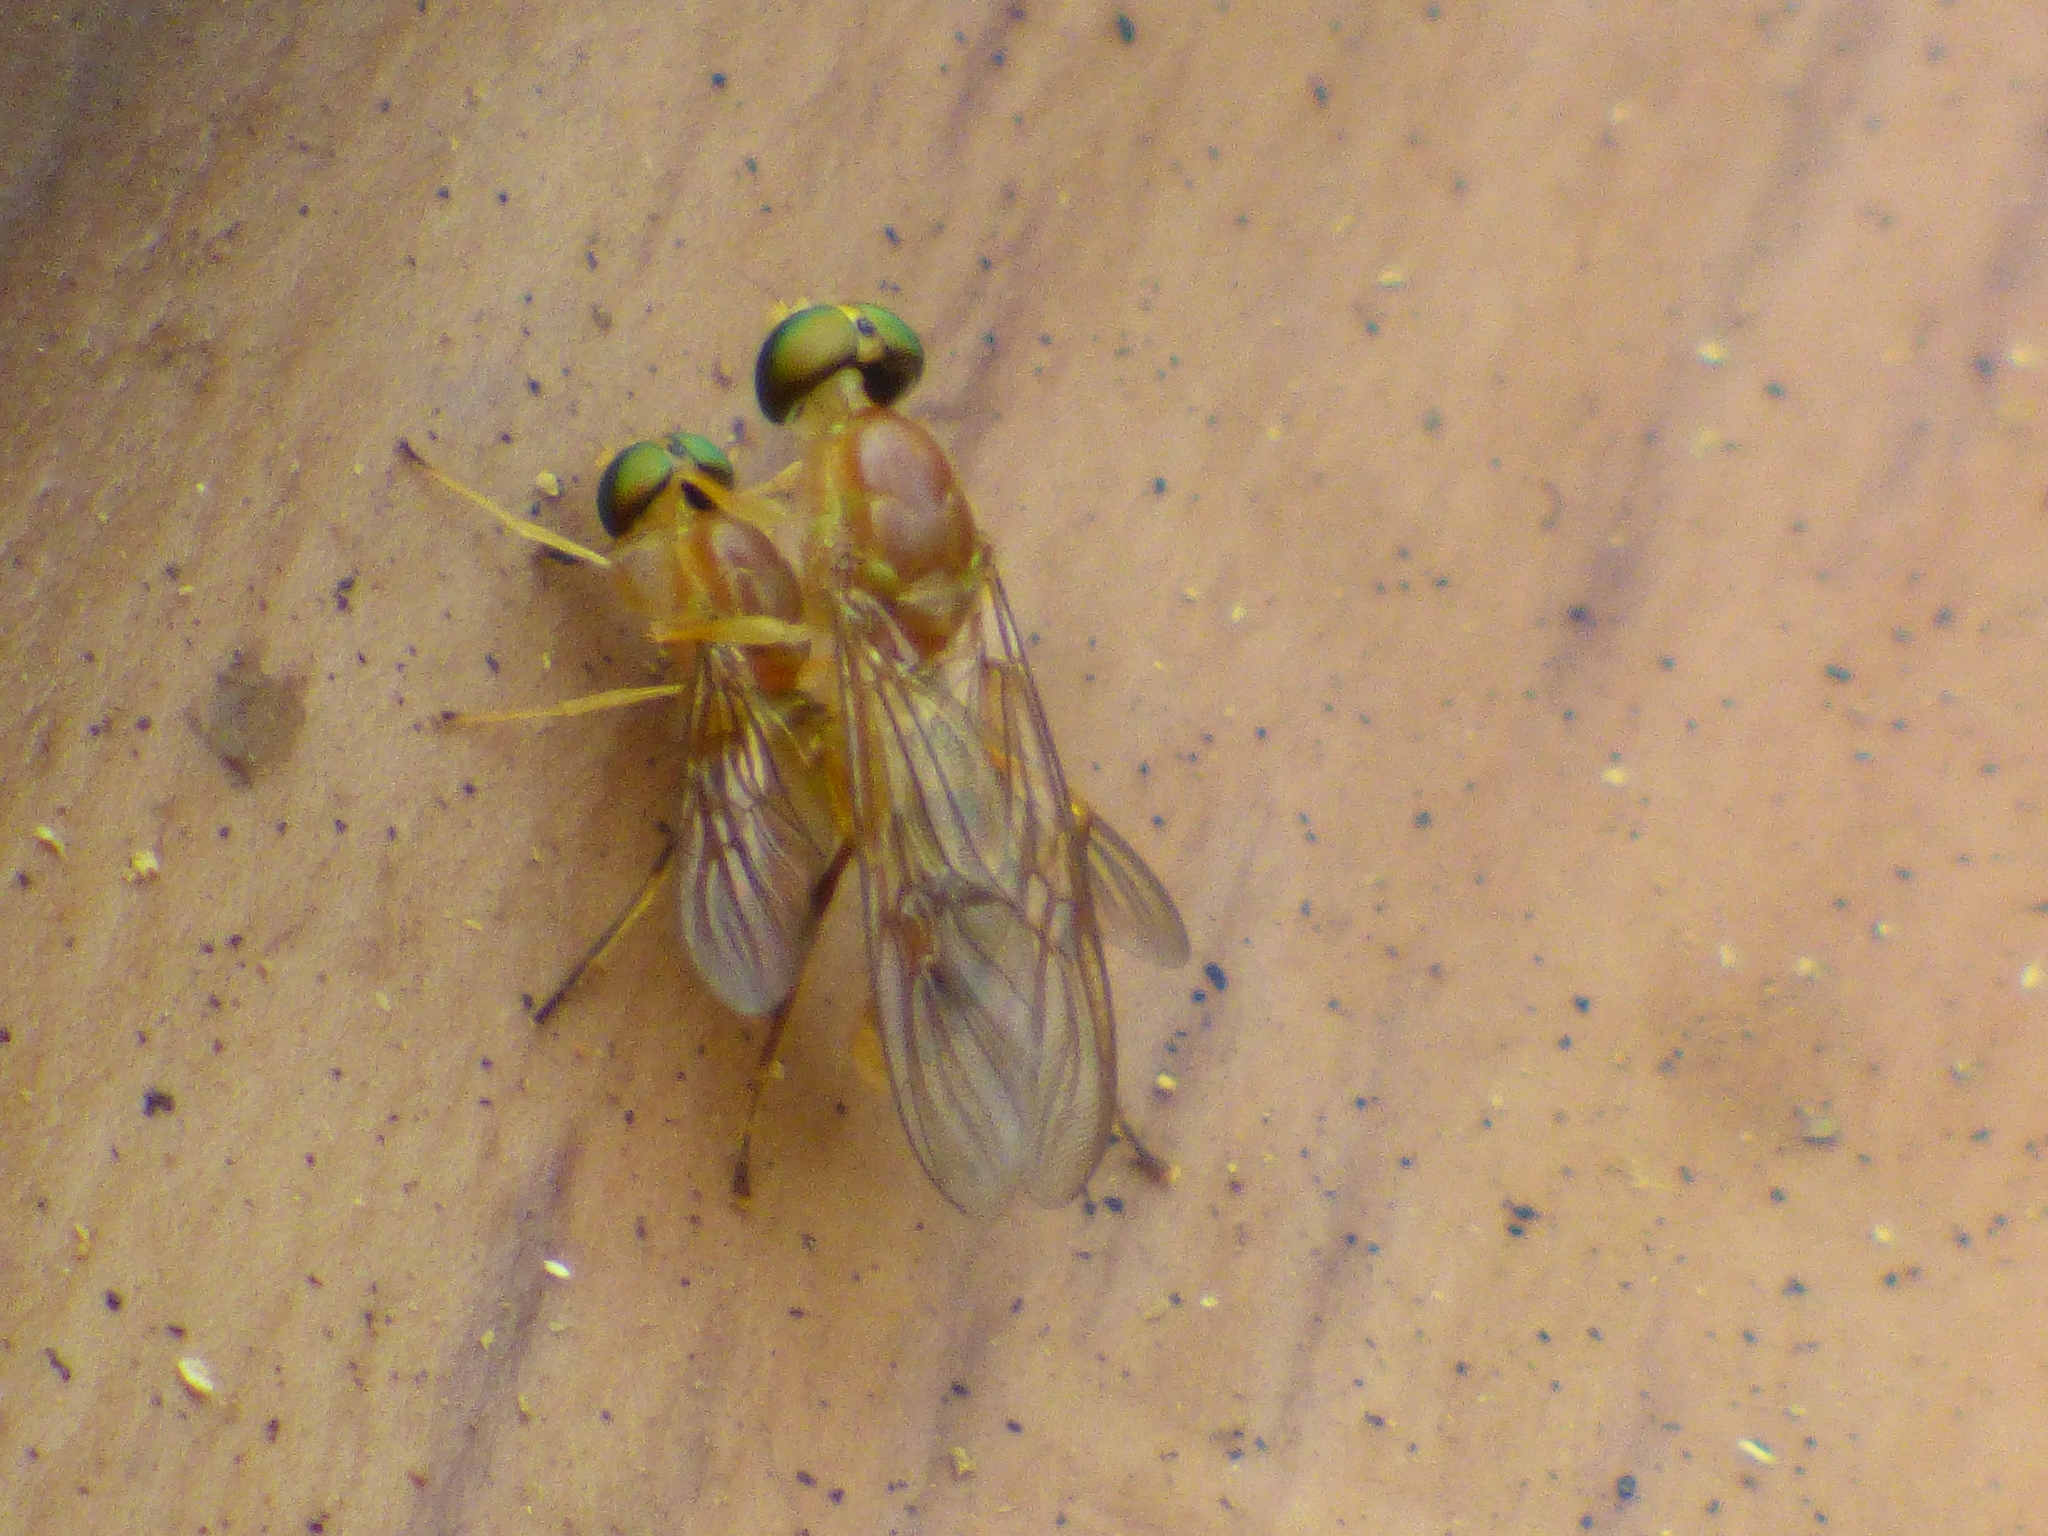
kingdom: Animalia
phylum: Arthropoda
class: Insecta
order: Diptera
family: Stratiomyidae
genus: Ptecticus
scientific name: Ptecticus trivittatus
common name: Compost fly
